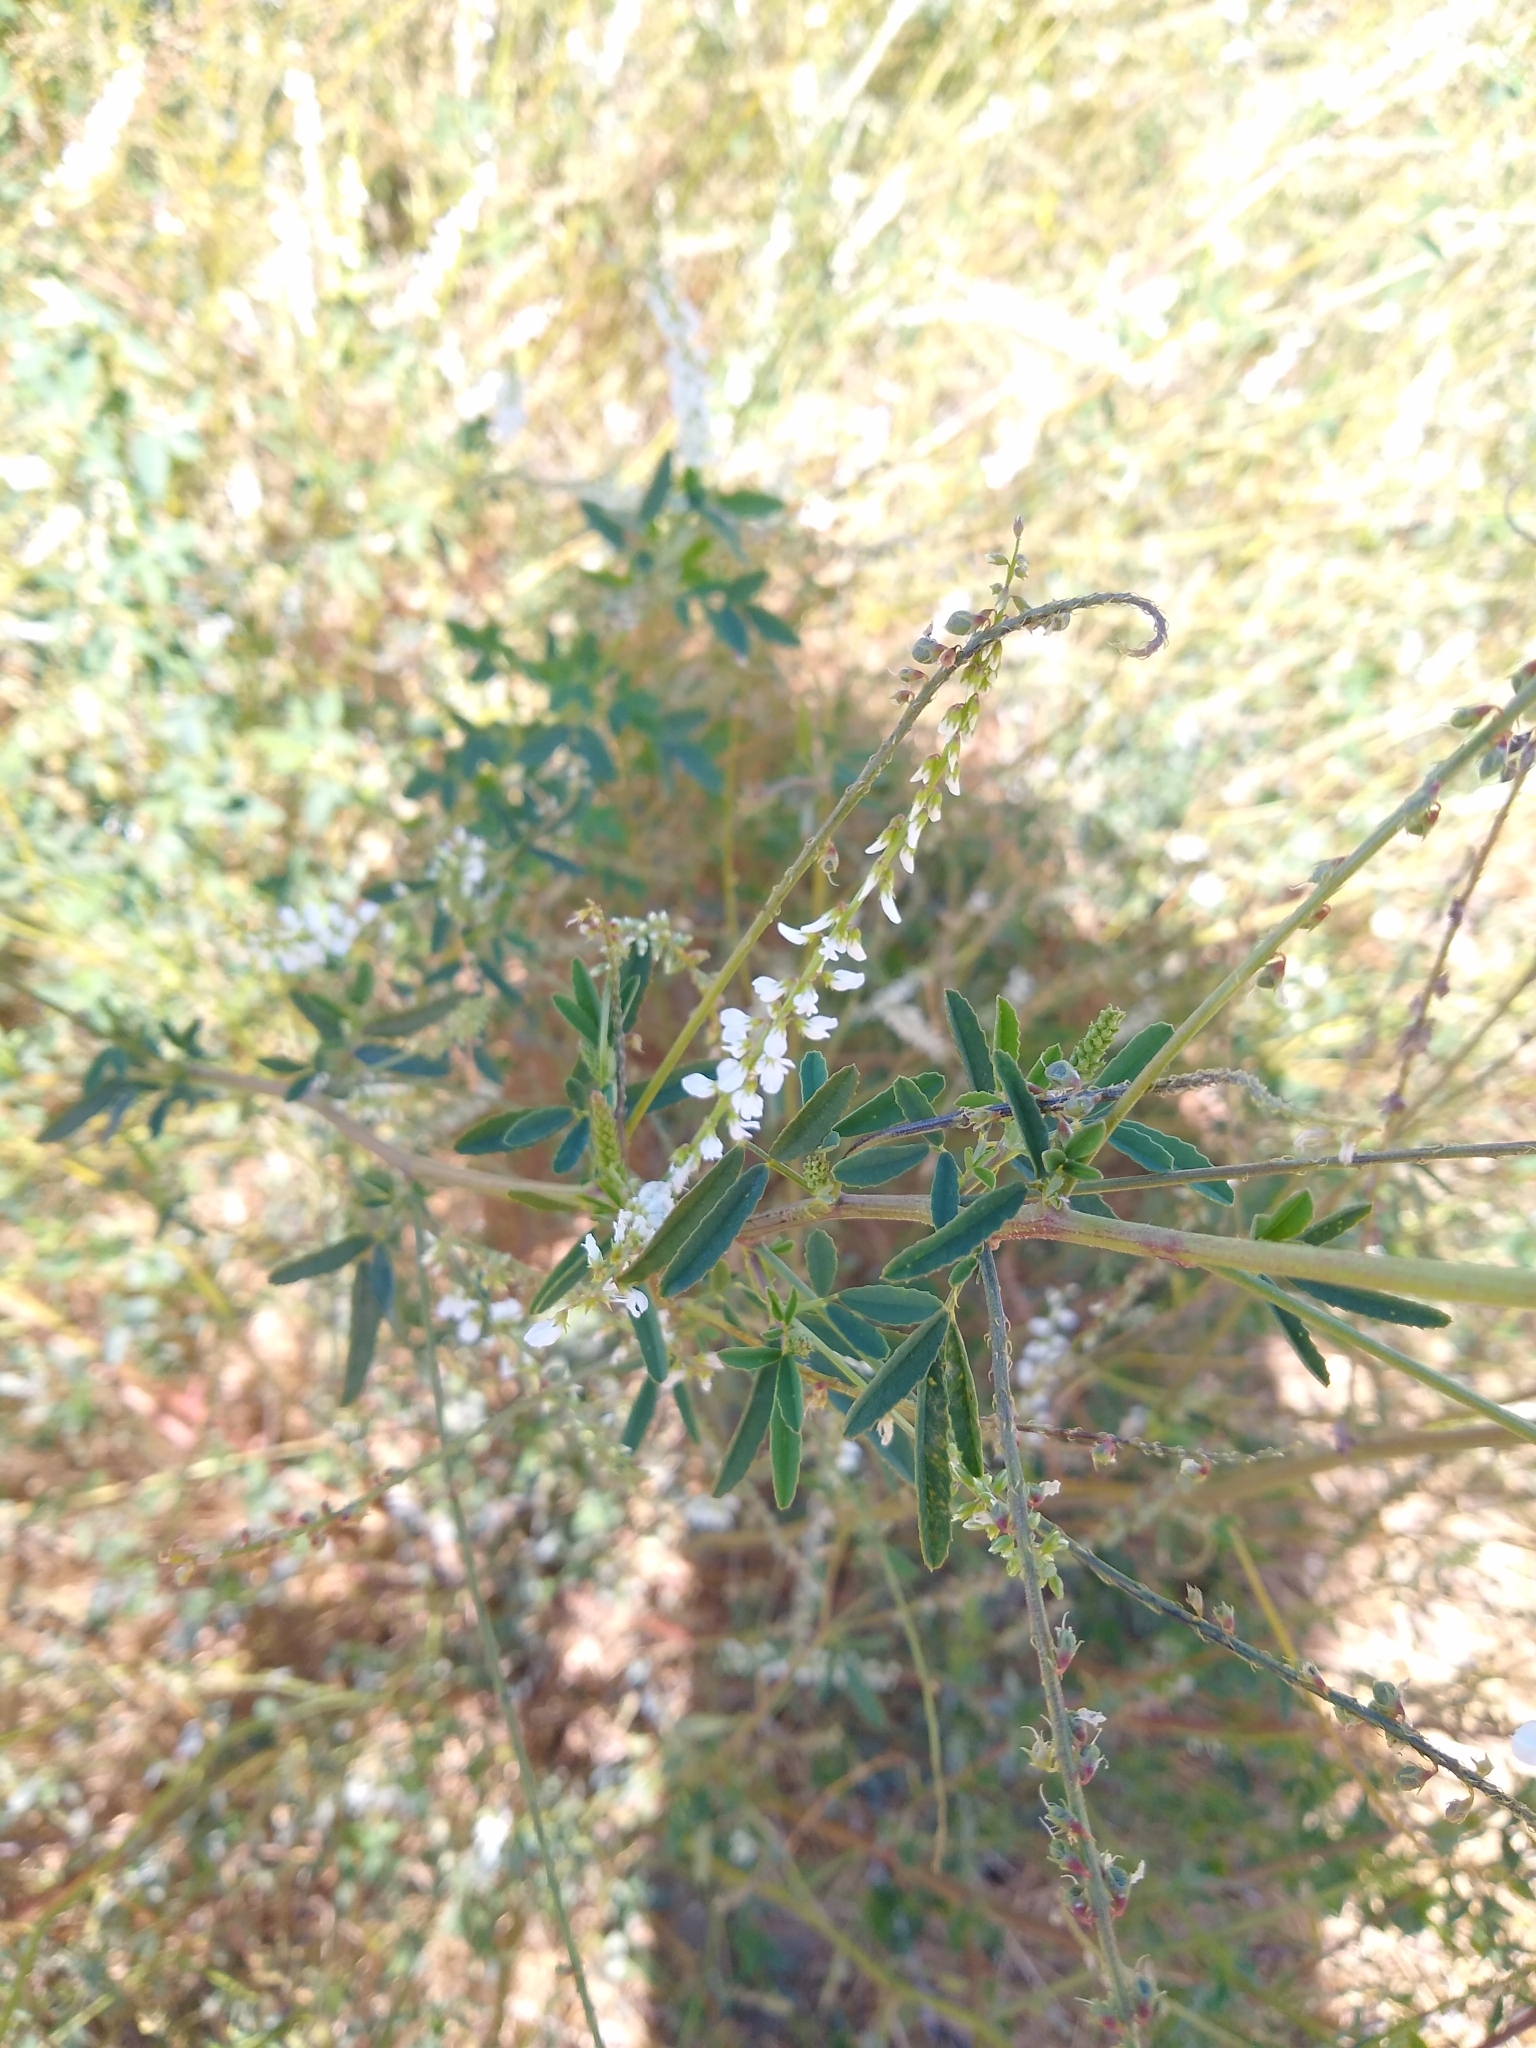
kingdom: Plantae
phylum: Tracheophyta
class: Magnoliopsida
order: Fabales
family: Fabaceae
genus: Melilotus
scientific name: Melilotus albus
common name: White melilot
